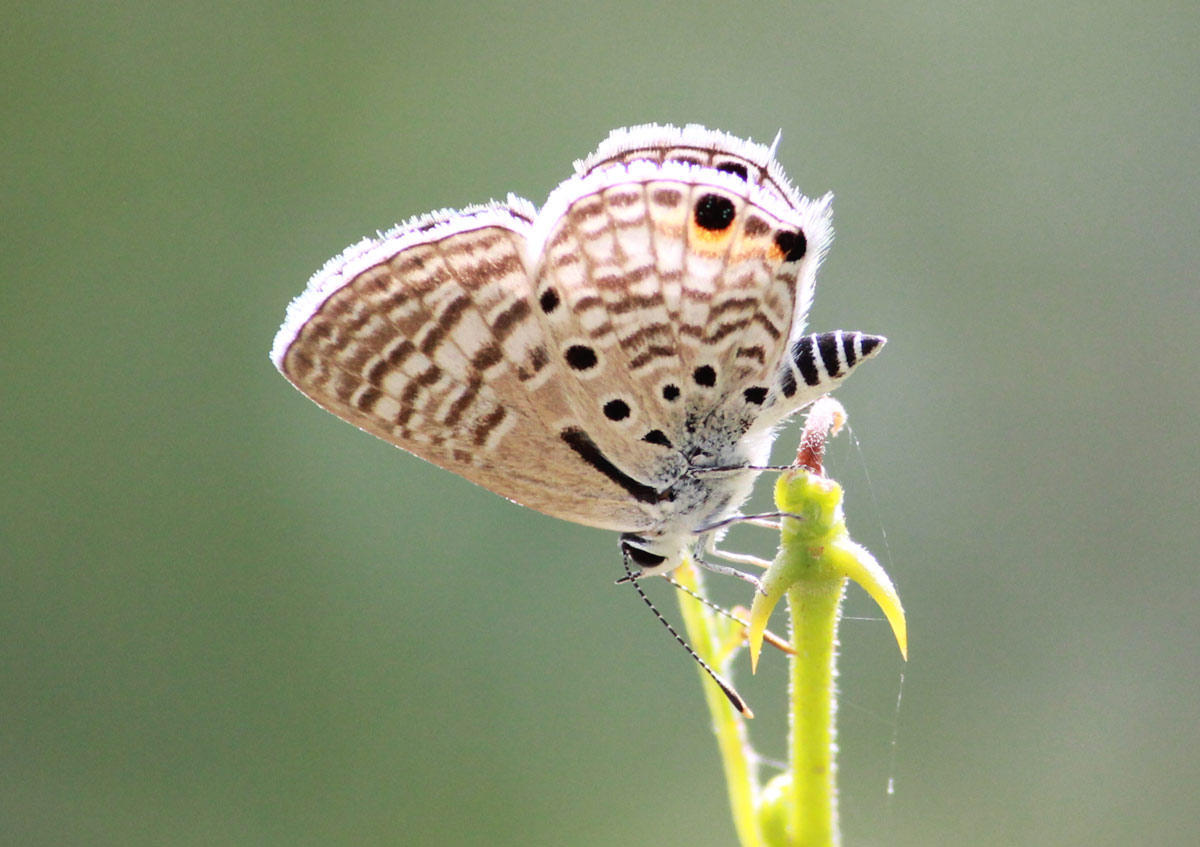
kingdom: Animalia
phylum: Arthropoda
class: Insecta
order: Lepidoptera
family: Lycaenidae
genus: Anthene
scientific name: Anthene amarah
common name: Black-striped hairtail
